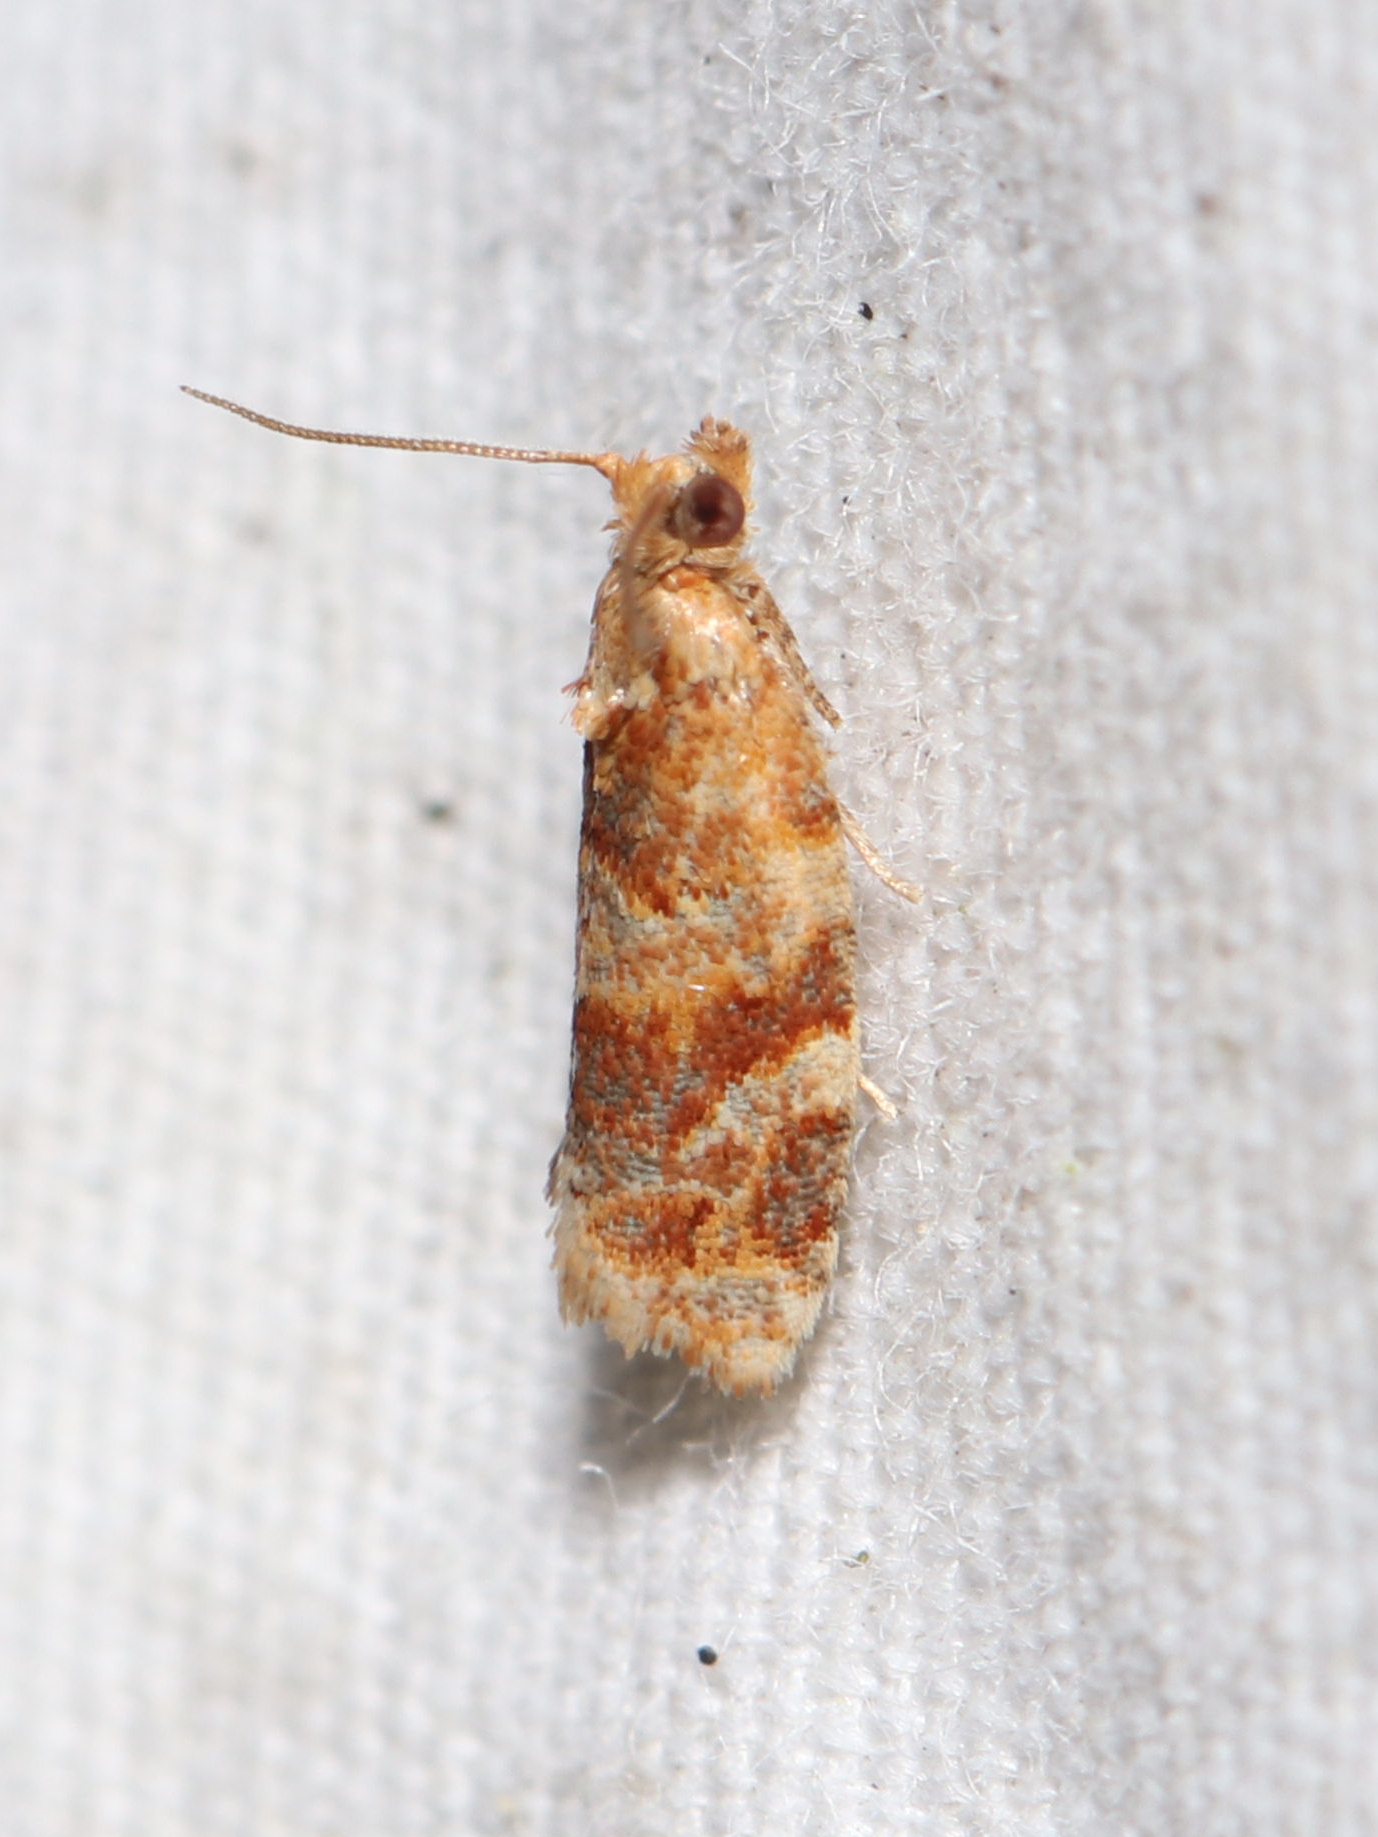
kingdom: Animalia
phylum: Arthropoda
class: Insecta
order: Lepidoptera
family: Tortricidae
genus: Argyrotaenia
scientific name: Argyrotaenia pinatubana
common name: Pine tube moth
